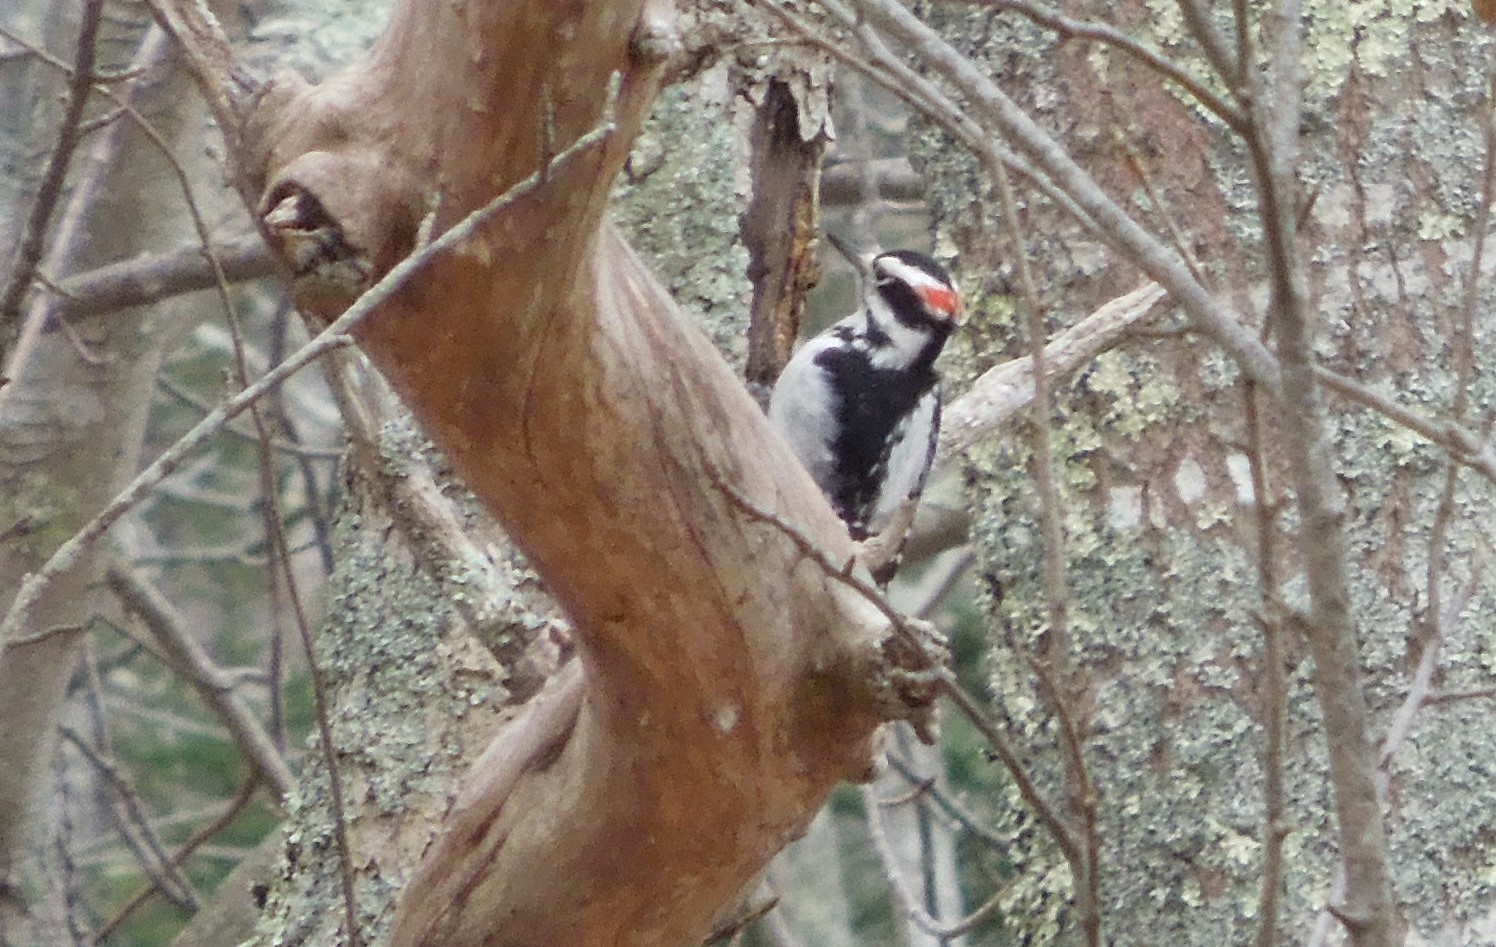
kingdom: Animalia
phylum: Chordata
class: Aves
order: Piciformes
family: Picidae
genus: Leuconotopicus
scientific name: Leuconotopicus villosus
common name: Hairy woodpecker
